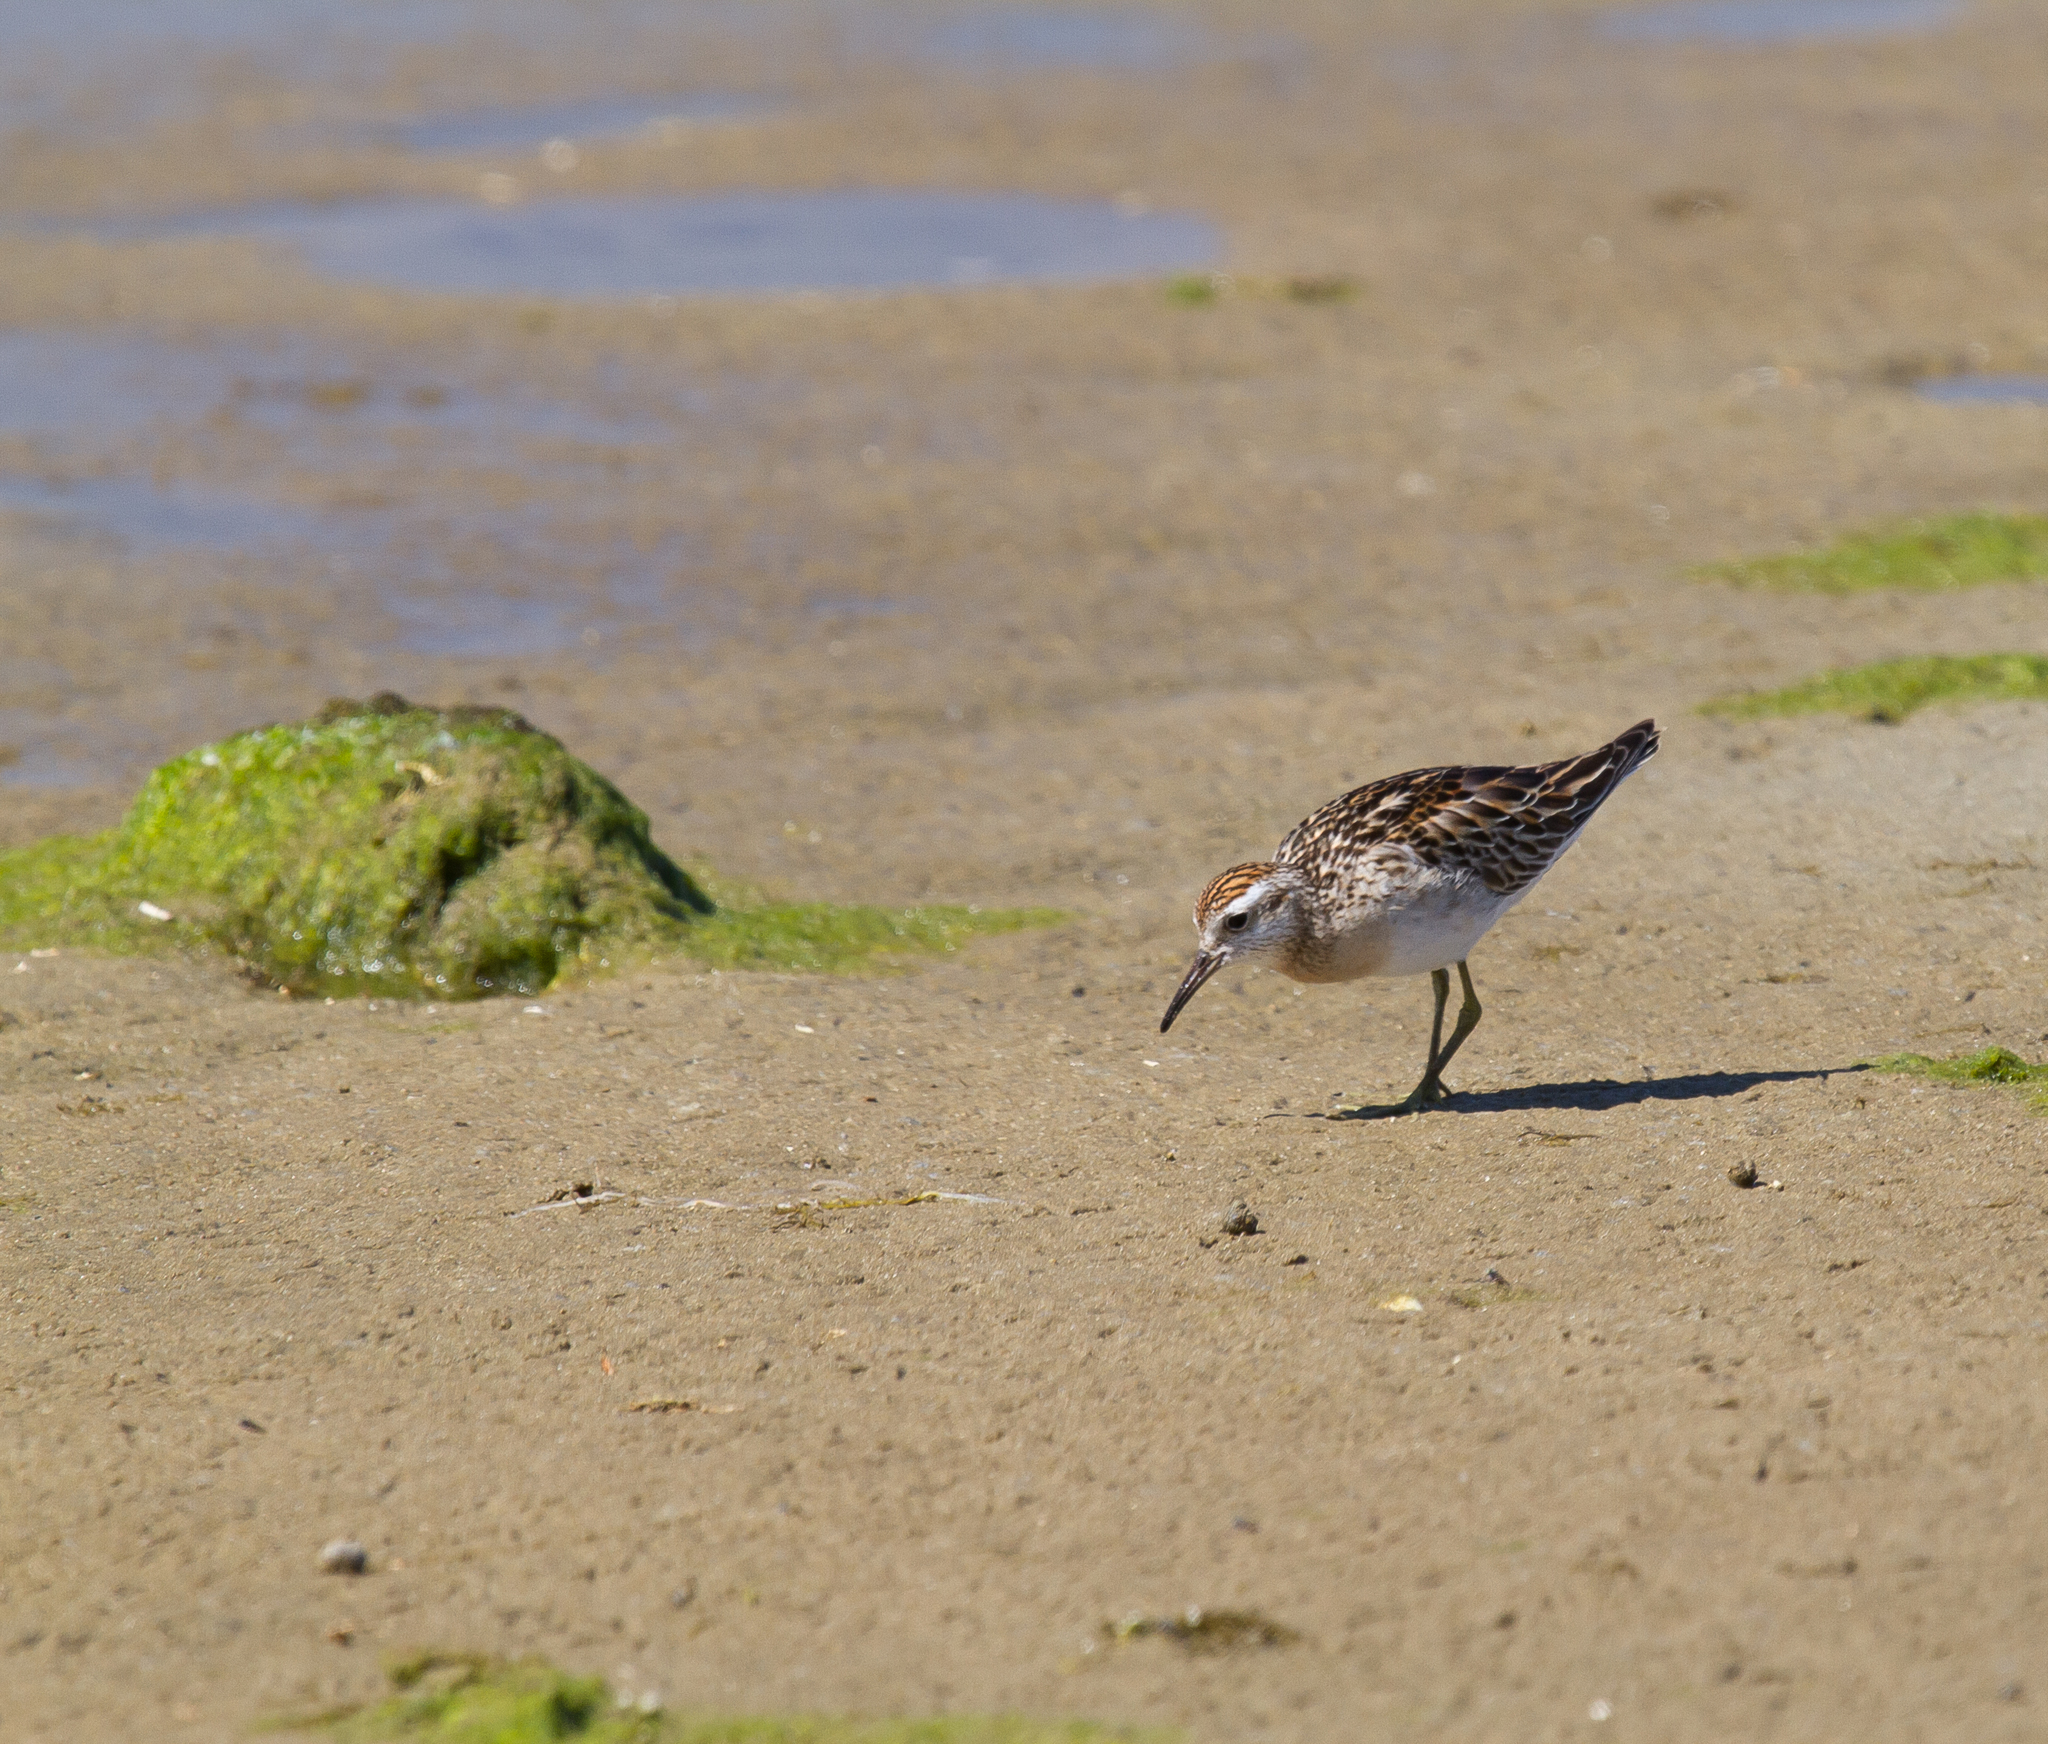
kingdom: Animalia
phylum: Chordata
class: Aves
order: Charadriiformes
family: Scolopacidae
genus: Calidris
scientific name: Calidris acuminata
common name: Sharp-tailed sandpiper
